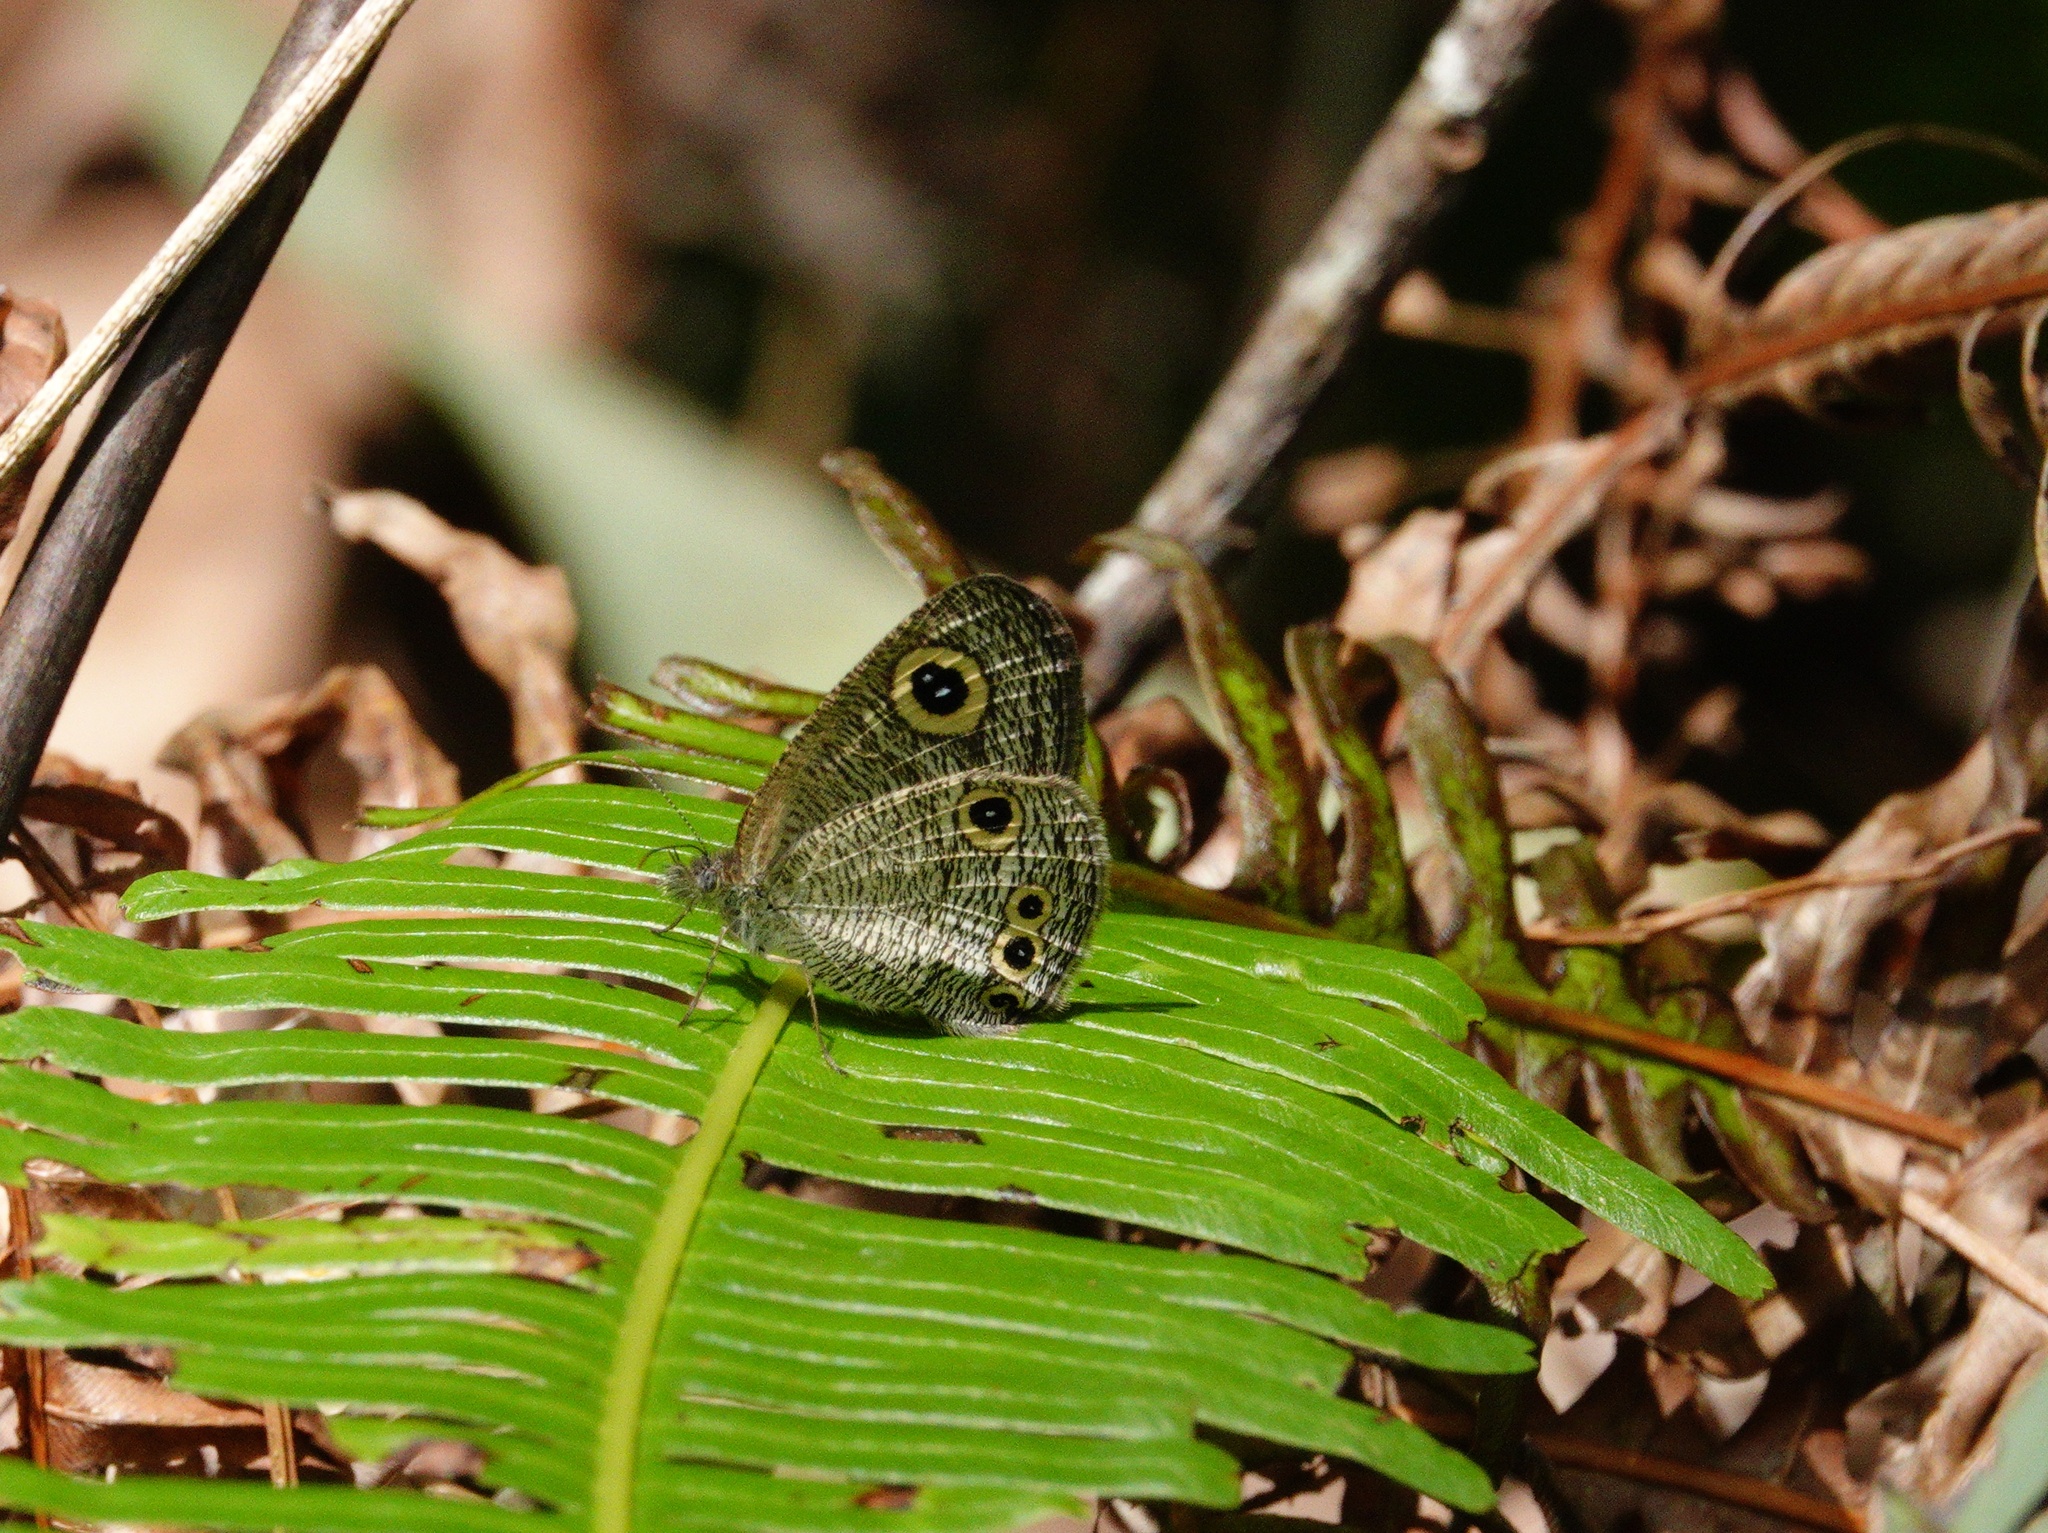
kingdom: Animalia
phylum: Arthropoda
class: Insecta
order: Lepidoptera
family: Nymphalidae
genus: Ypthima
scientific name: Ypthima huebneri
